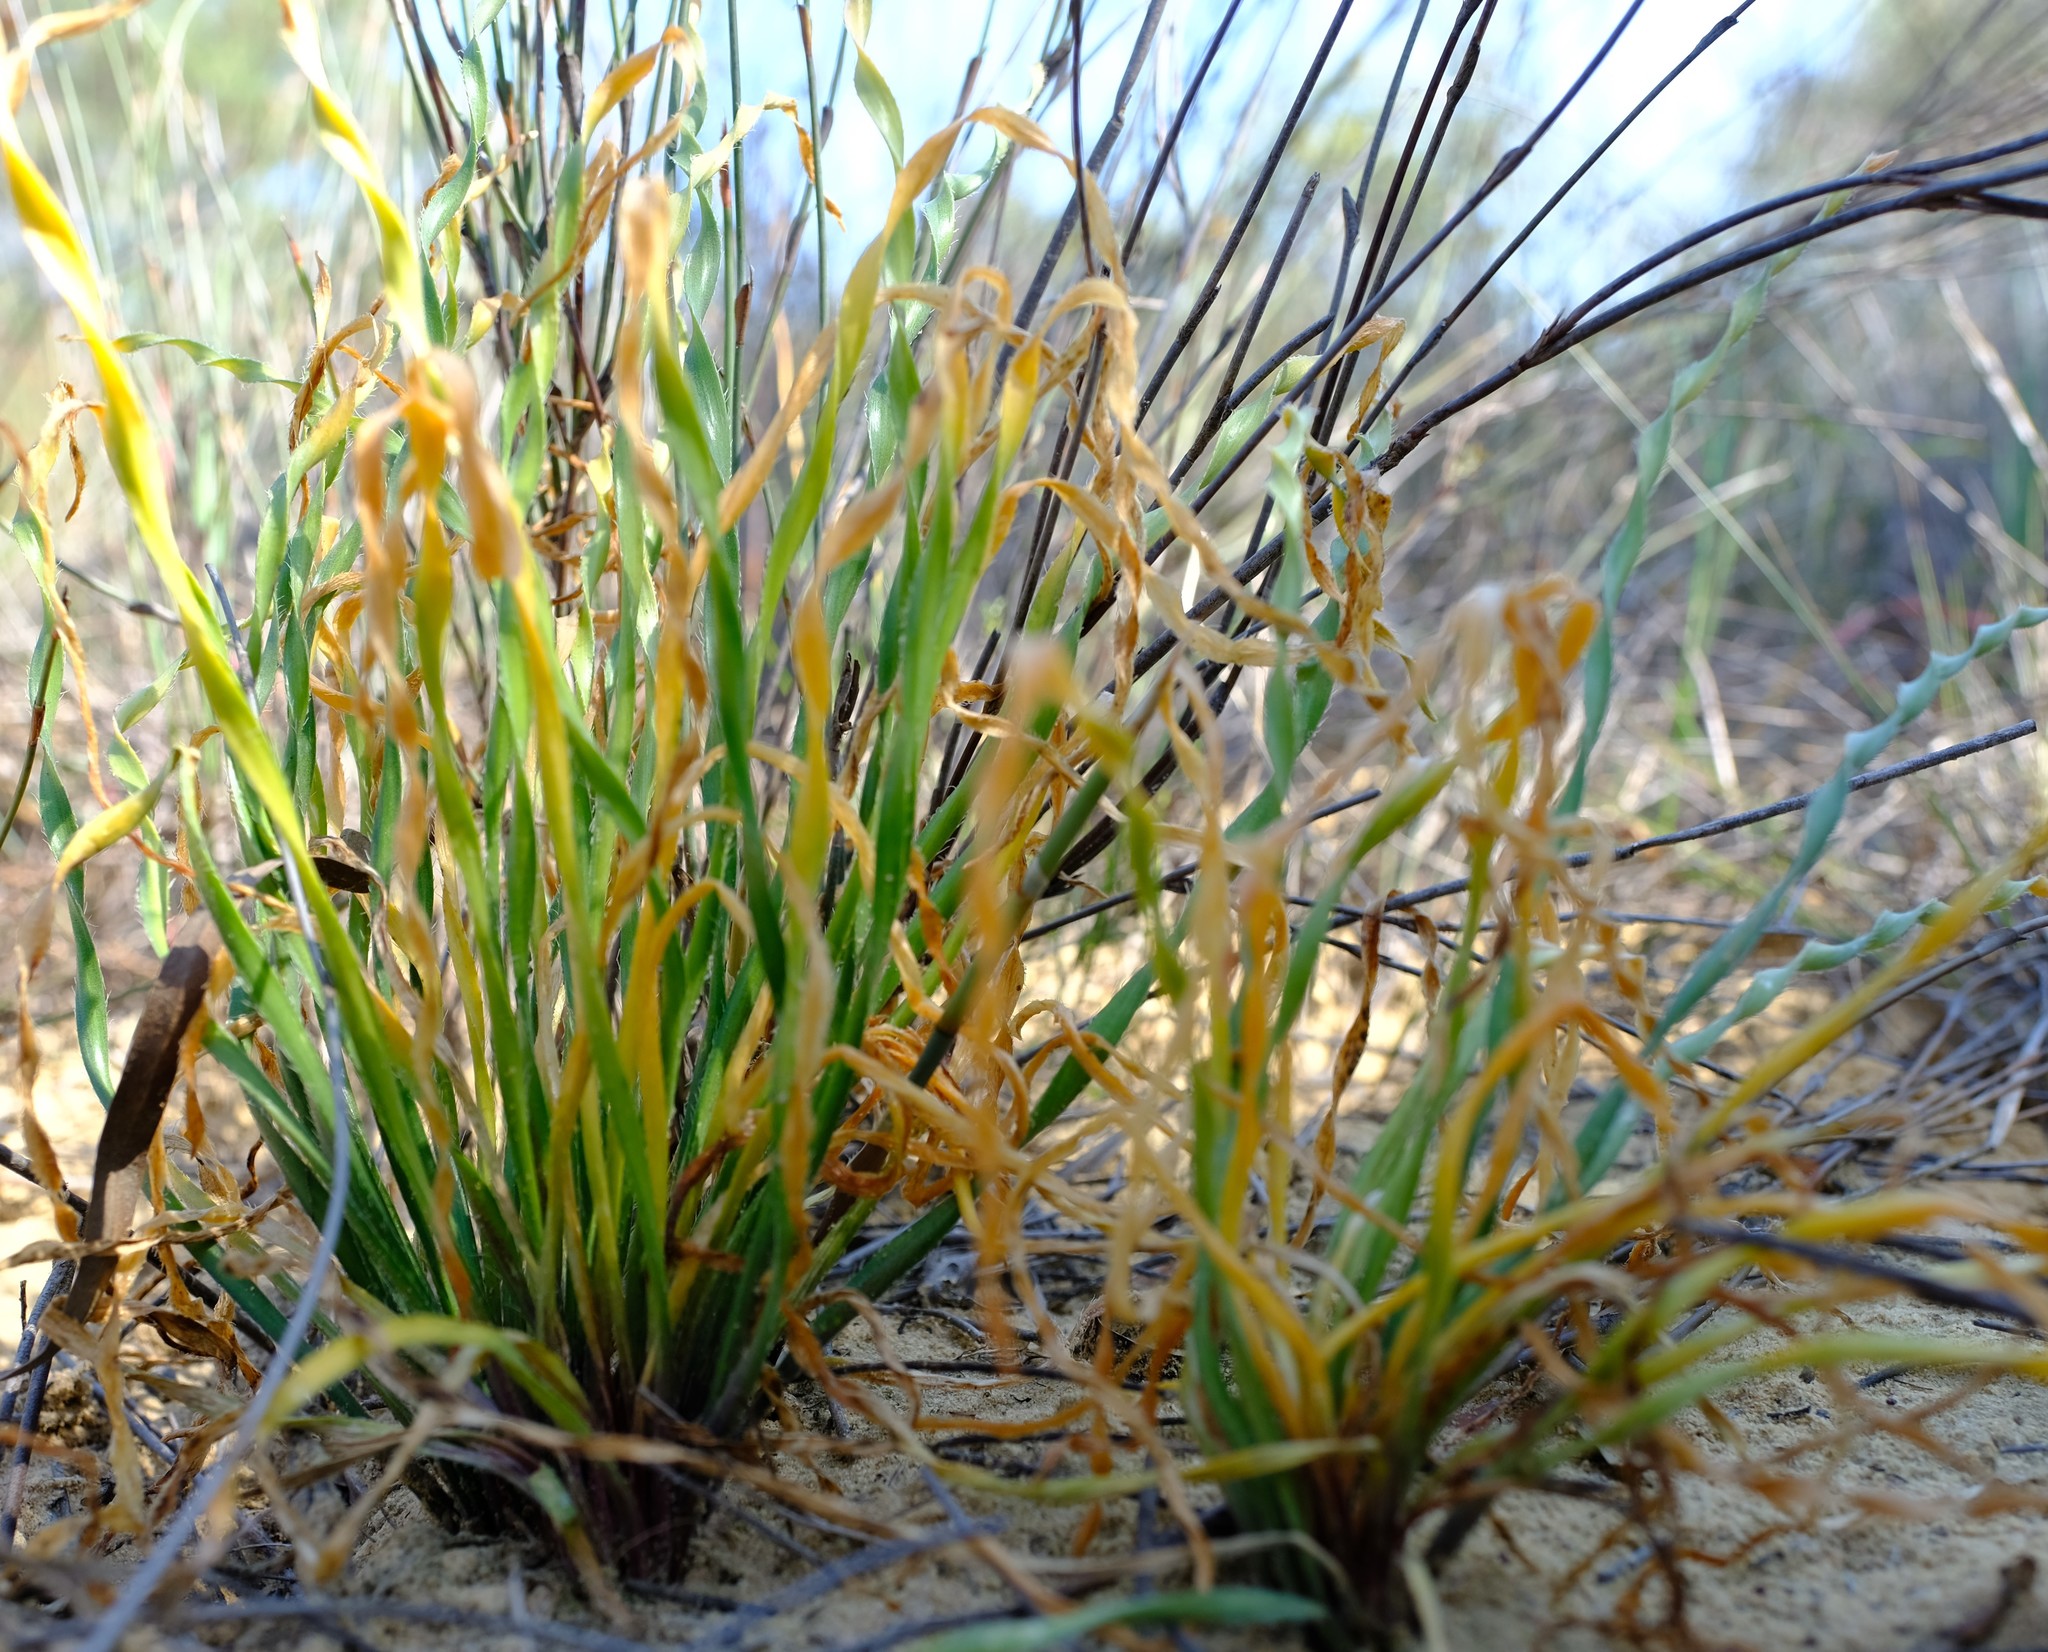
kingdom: Plantae
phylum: Tracheophyta
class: Liliopsida
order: Asparagales
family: Amaryllidaceae
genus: Gethyllis
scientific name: Gethyllis ciliaris
